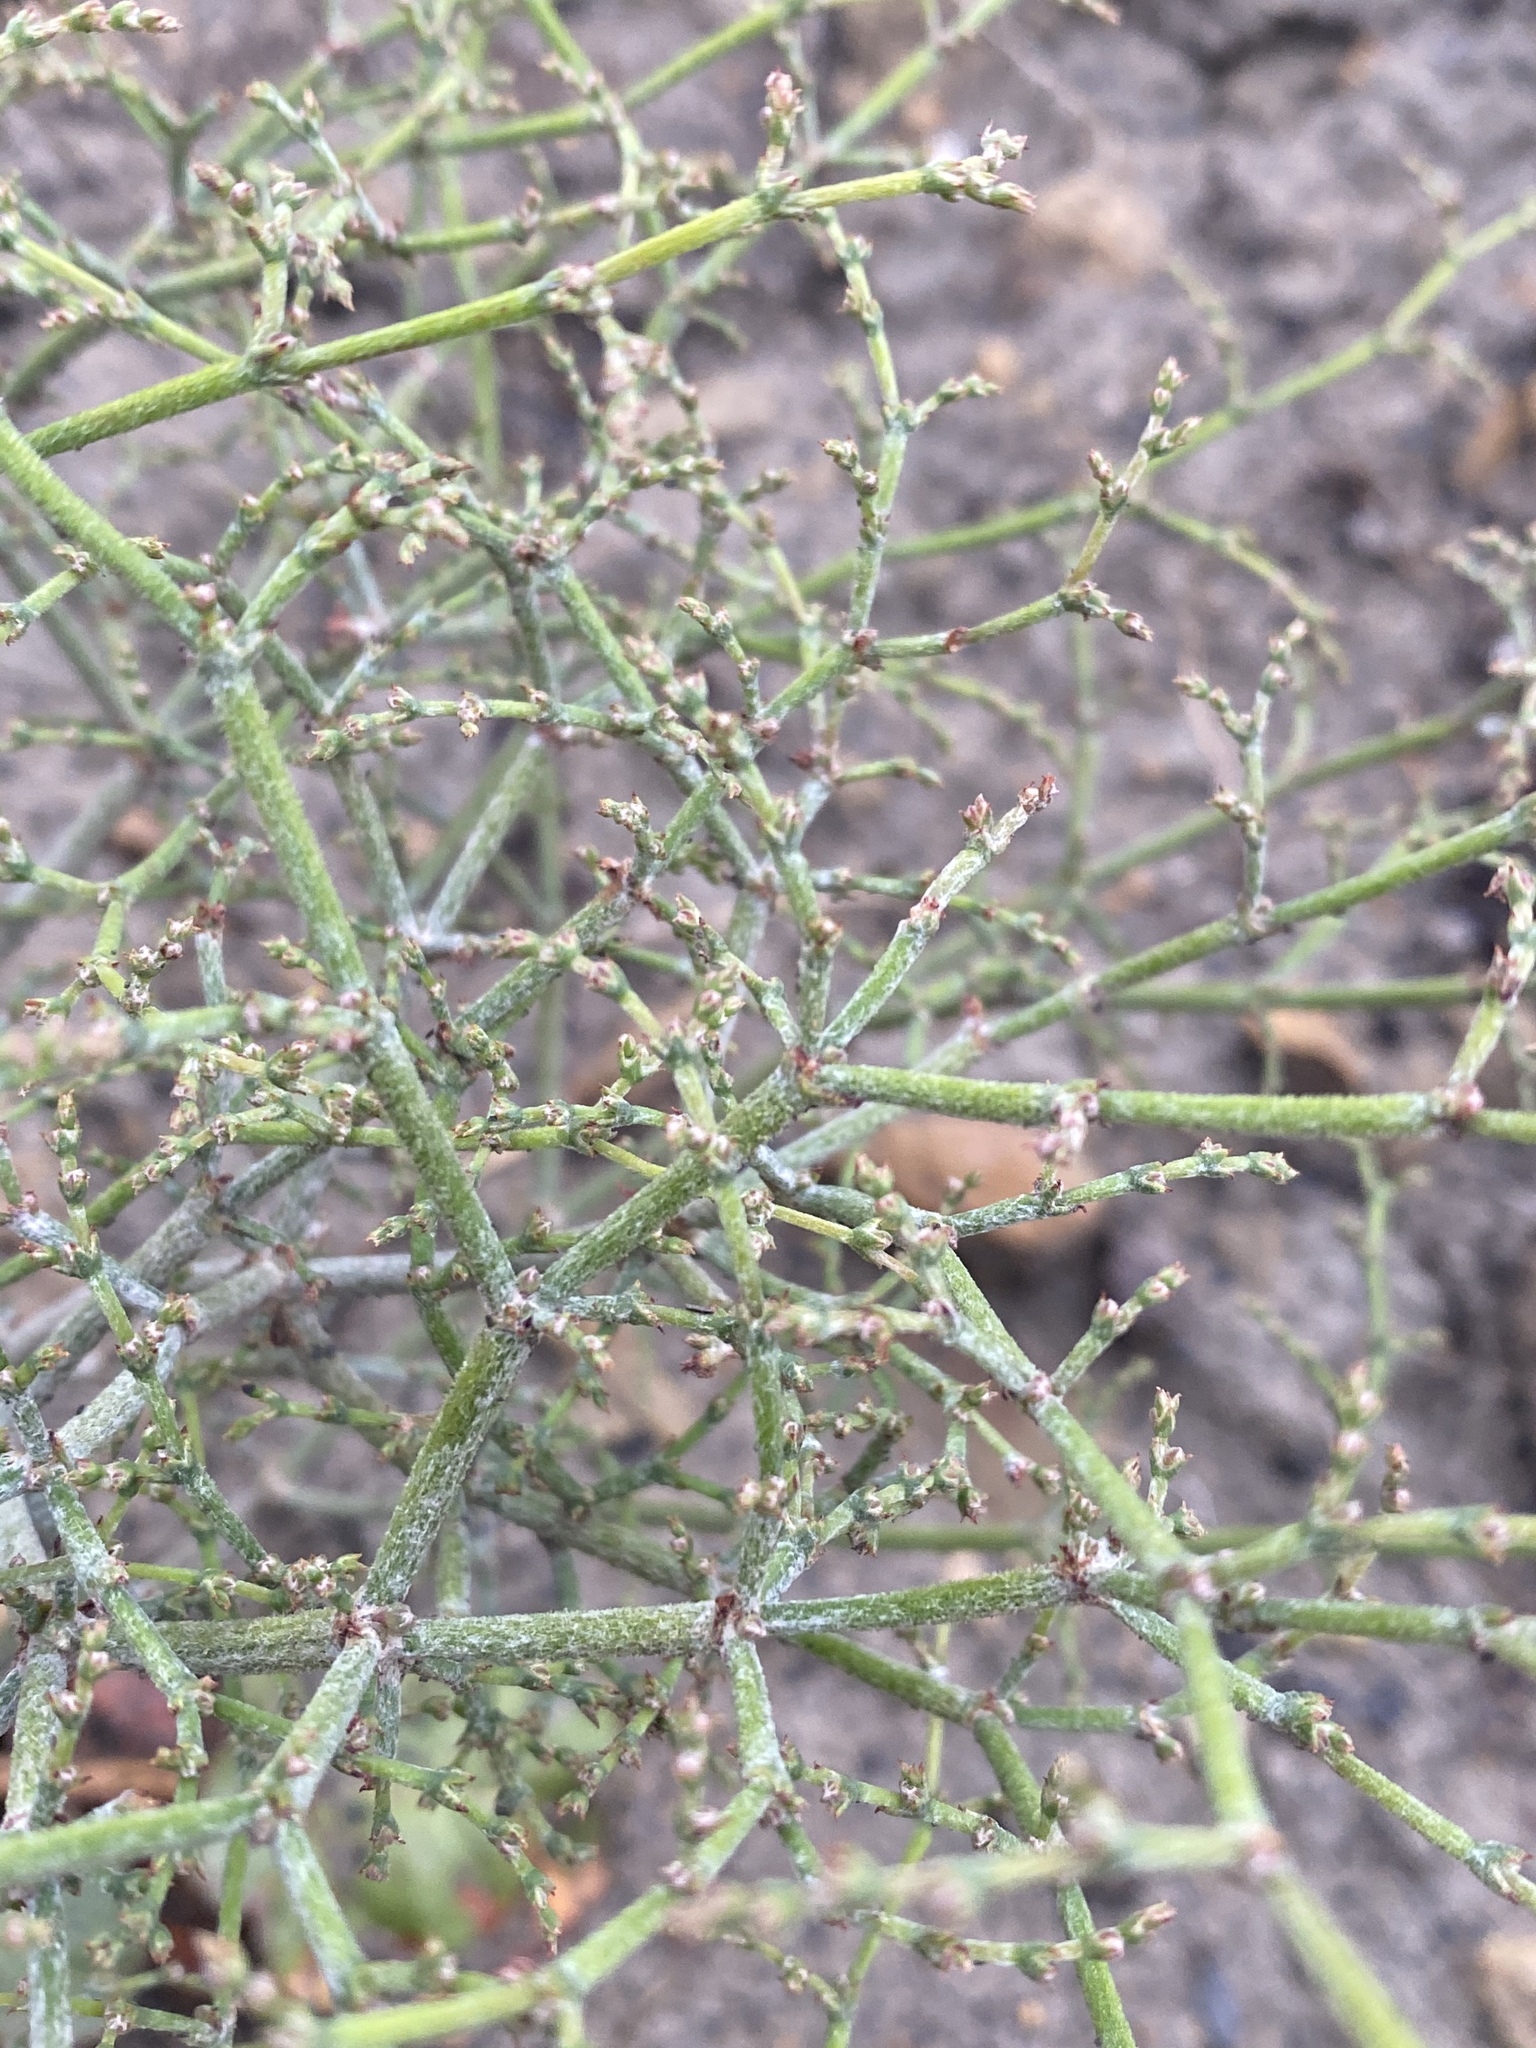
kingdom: Plantae
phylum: Tracheophyta
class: Magnoliopsida
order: Caryophyllales
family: Polygonaceae
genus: Eriogonum
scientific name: Eriogonum scabrellum
